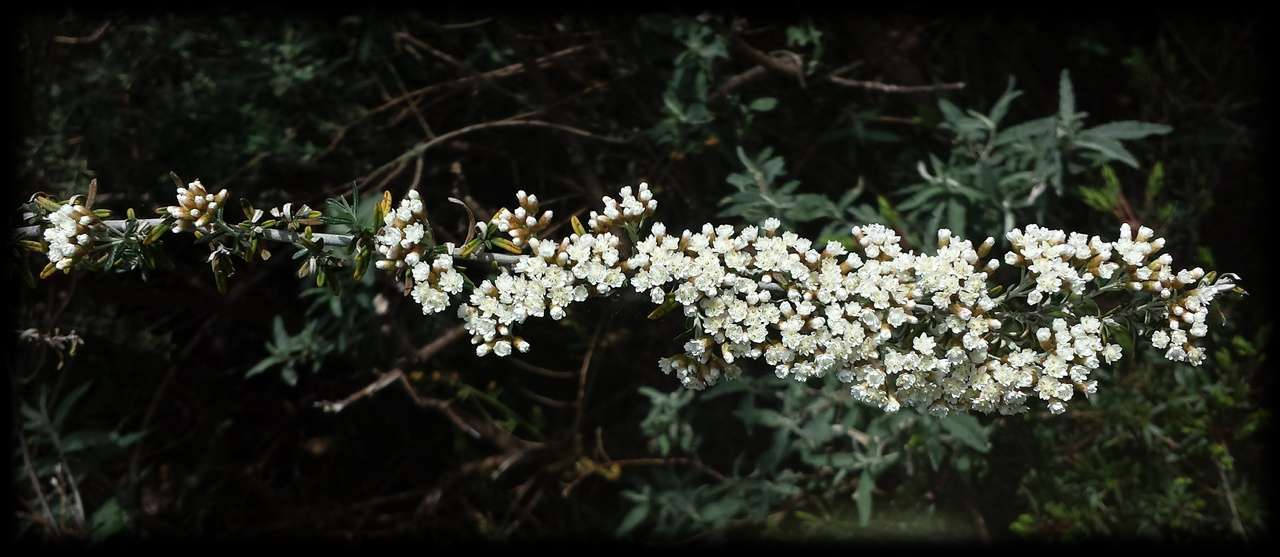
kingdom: Plantae
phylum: Tracheophyta
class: Magnoliopsida
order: Asterales
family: Asteraceae
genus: Ozothamnus
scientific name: Ozothamnus secundiflorus
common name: Cascade everlasting
